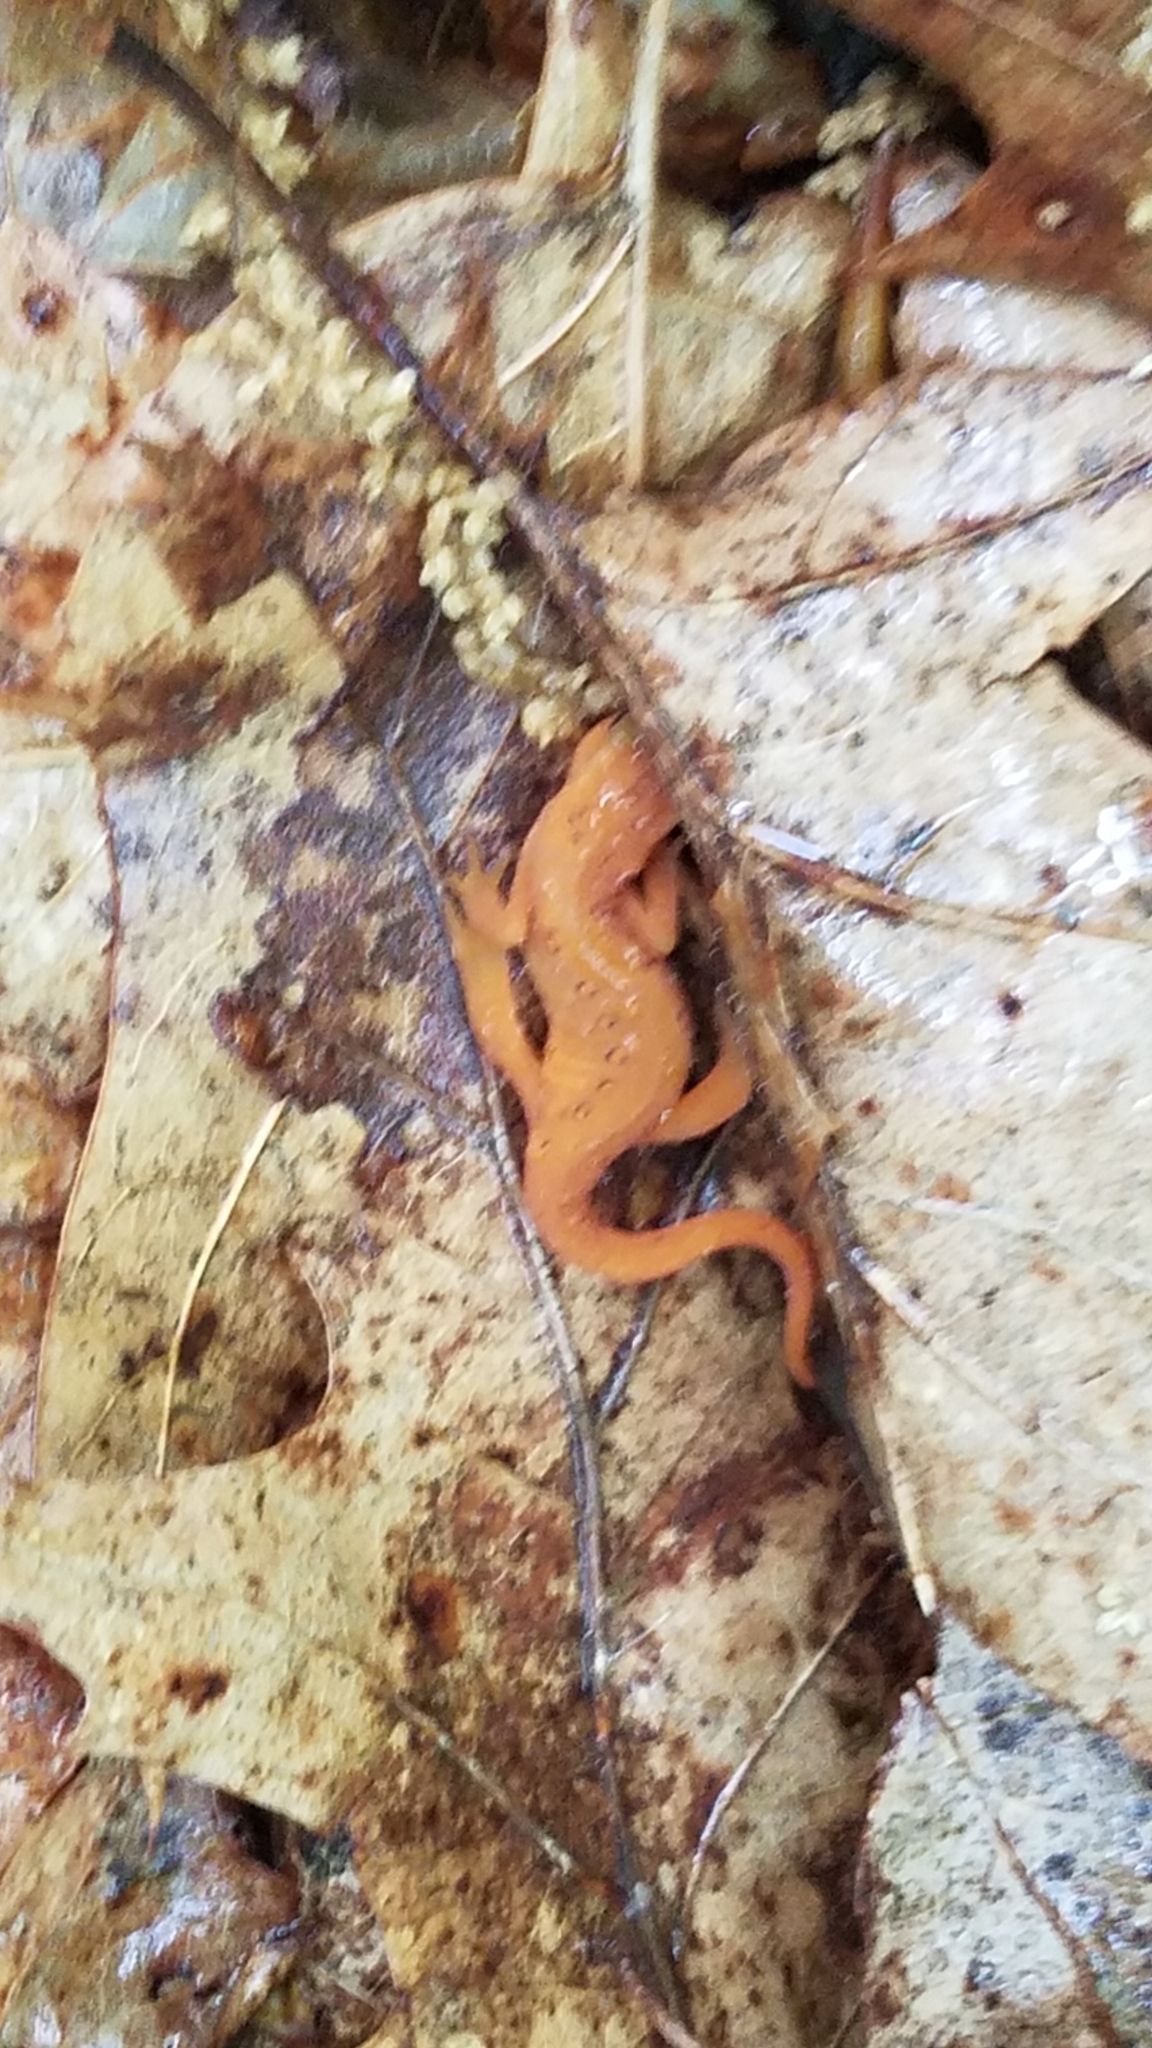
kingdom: Animalia
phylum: Chordata
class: Amphibia
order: Caudata
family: Salamandridae
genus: Notophthalmus
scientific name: Notophthalmus viridescens
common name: Eastern newt
